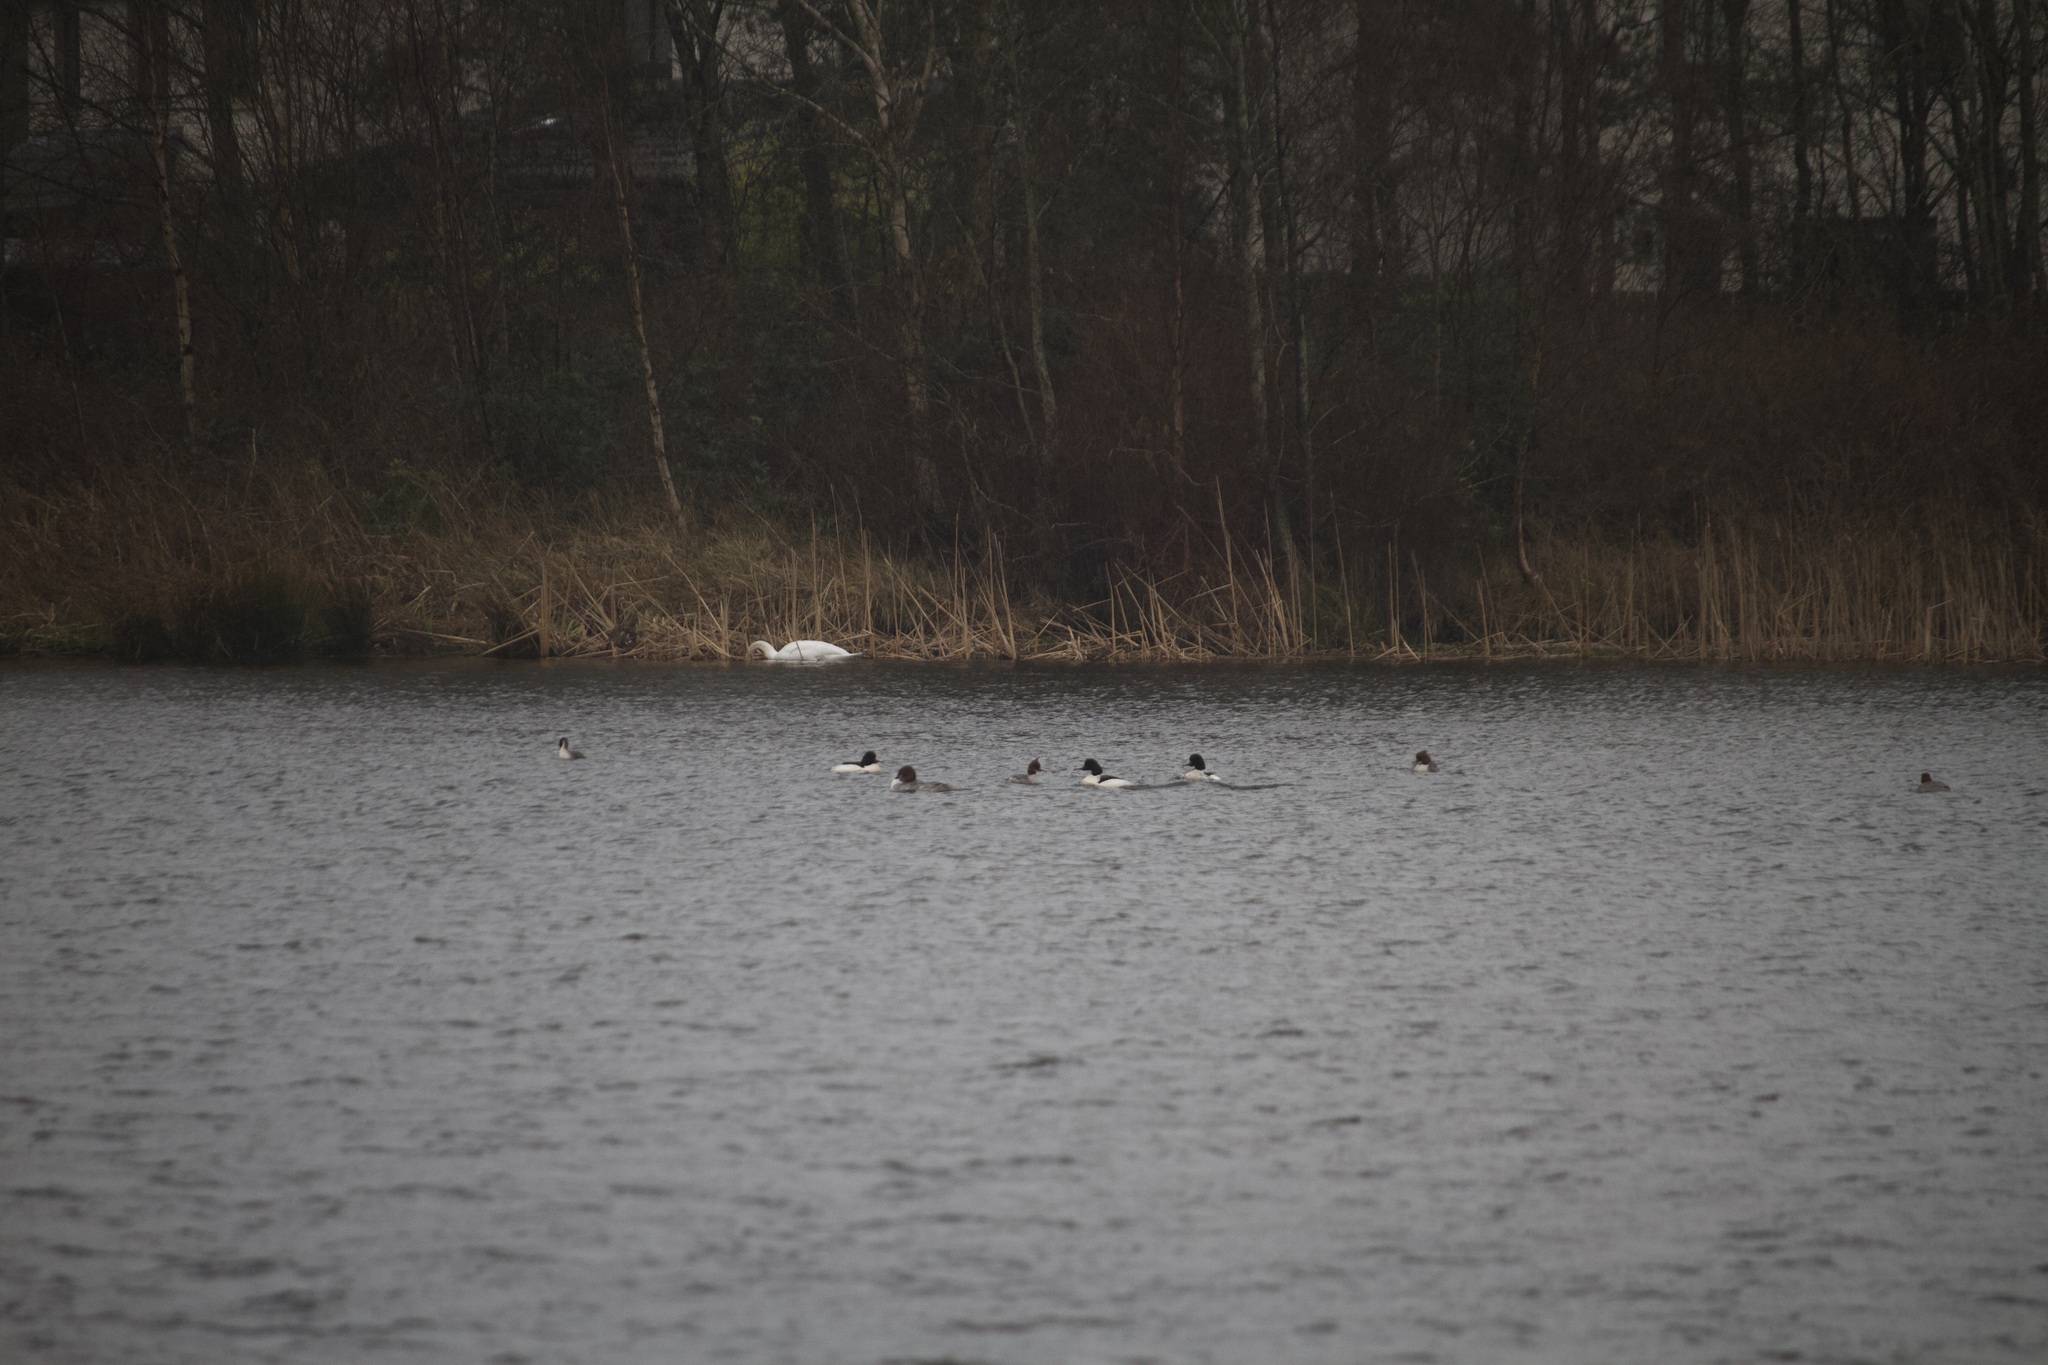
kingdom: Animalia
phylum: Chordata
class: Aves
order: Anseriformes
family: Anatidae
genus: Mergus
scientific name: Mergus merganser
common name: Common merganser
